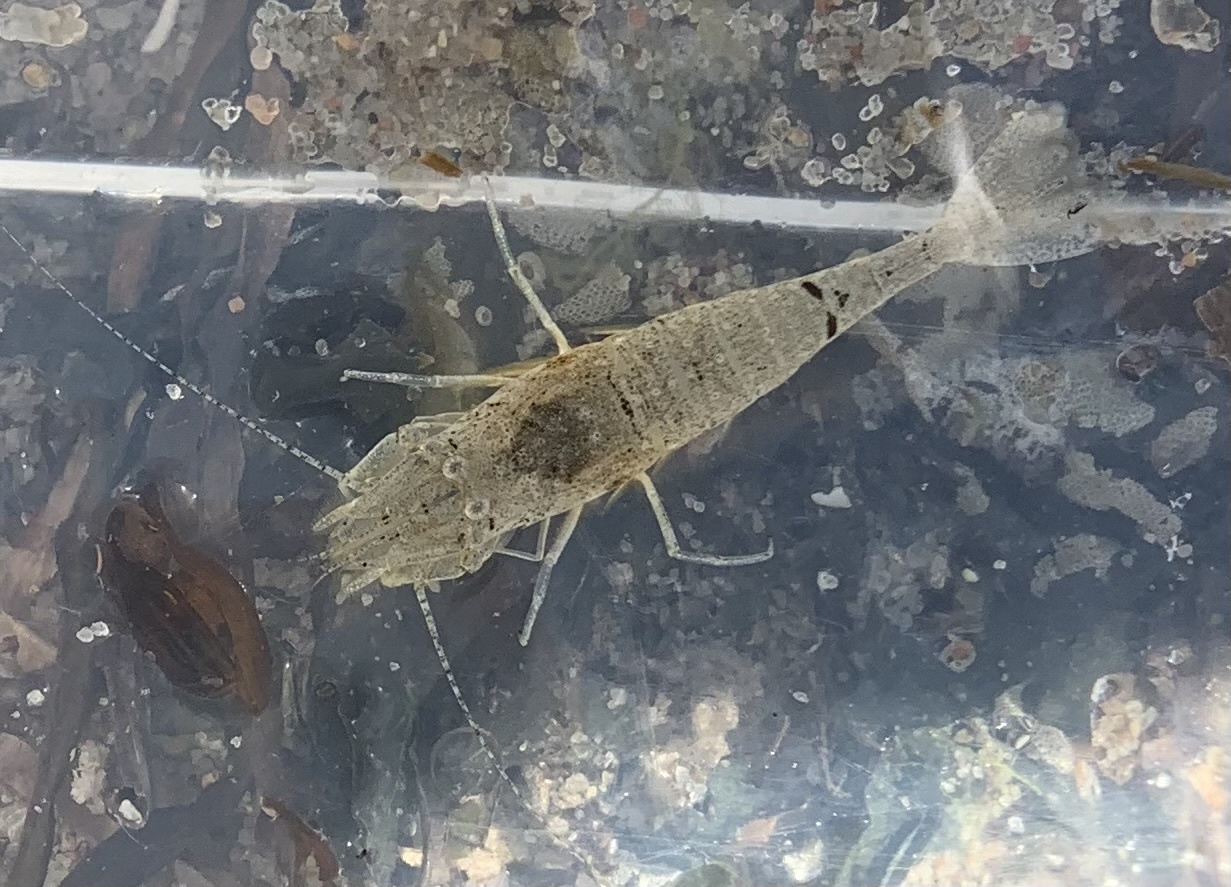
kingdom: Animalia
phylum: Arthropoda
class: Malacostraca
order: Decapoda
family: Crangonidae
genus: Crangon
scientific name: Crangon crangon
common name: Brown shrimp
